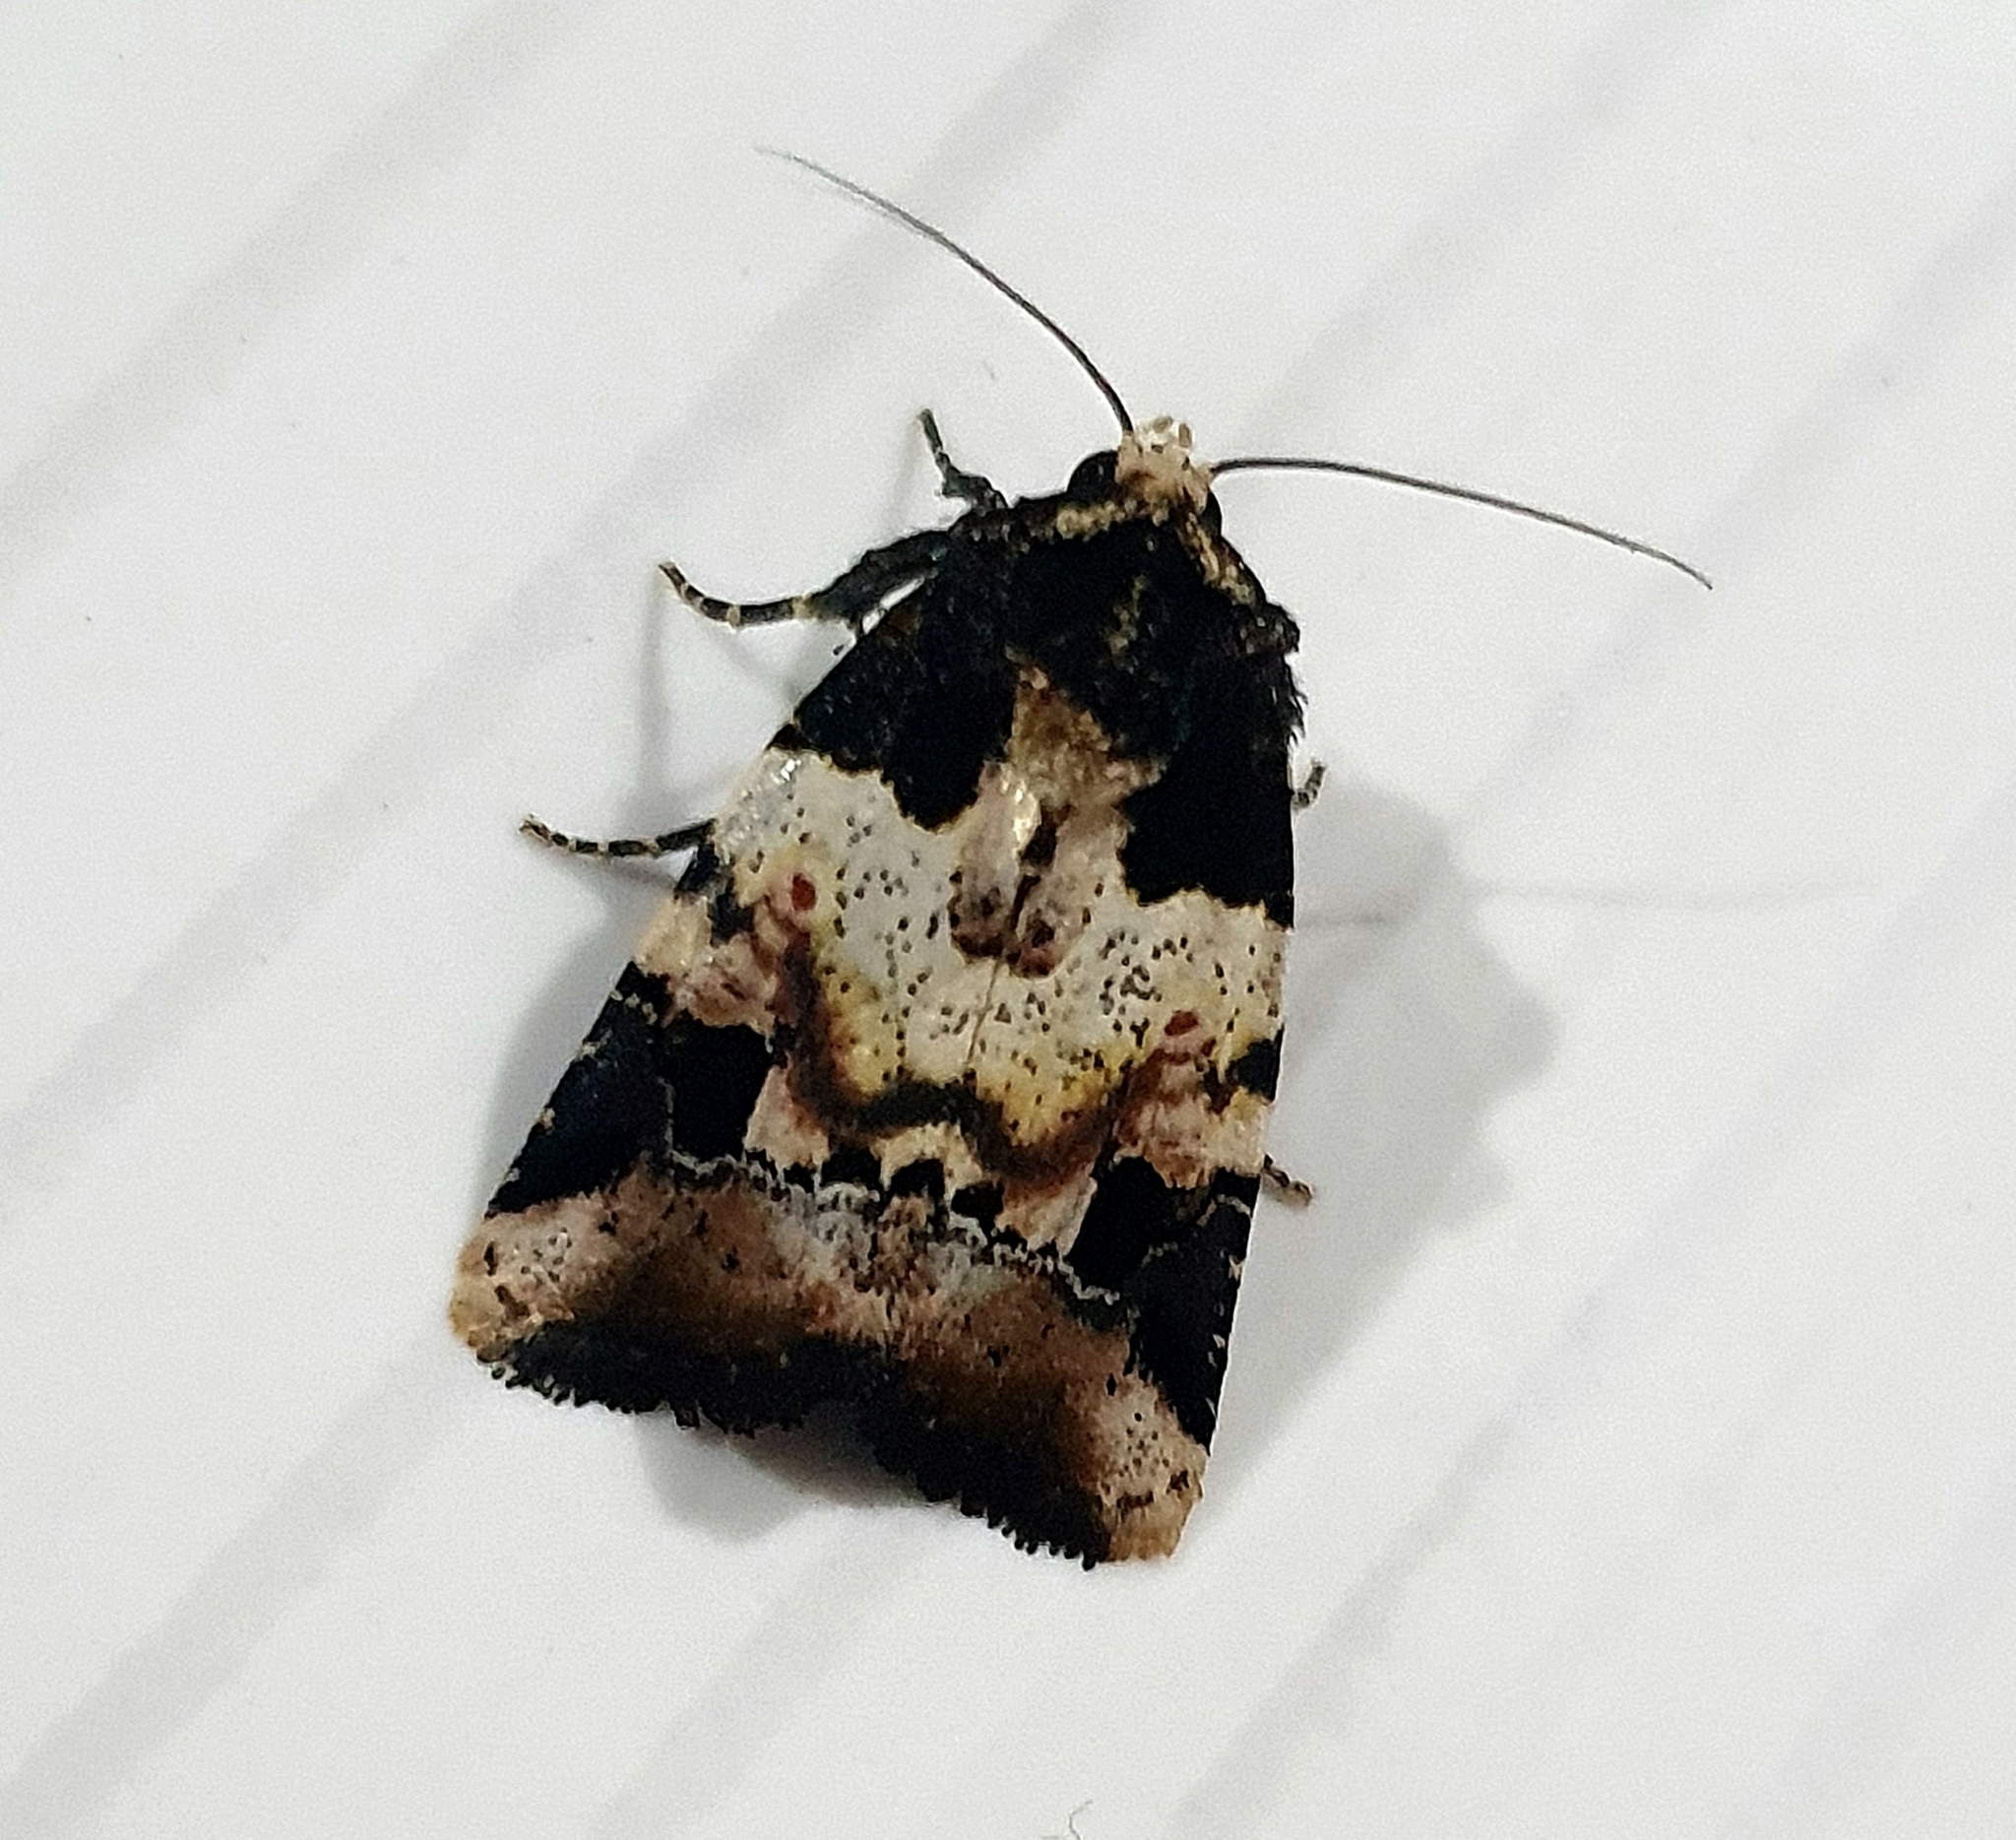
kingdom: Animalia
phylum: Arthropoda
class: Insecta
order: Lepidoptera
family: Noctuidae
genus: Bryolymnia
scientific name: Bryolymnia bicon
